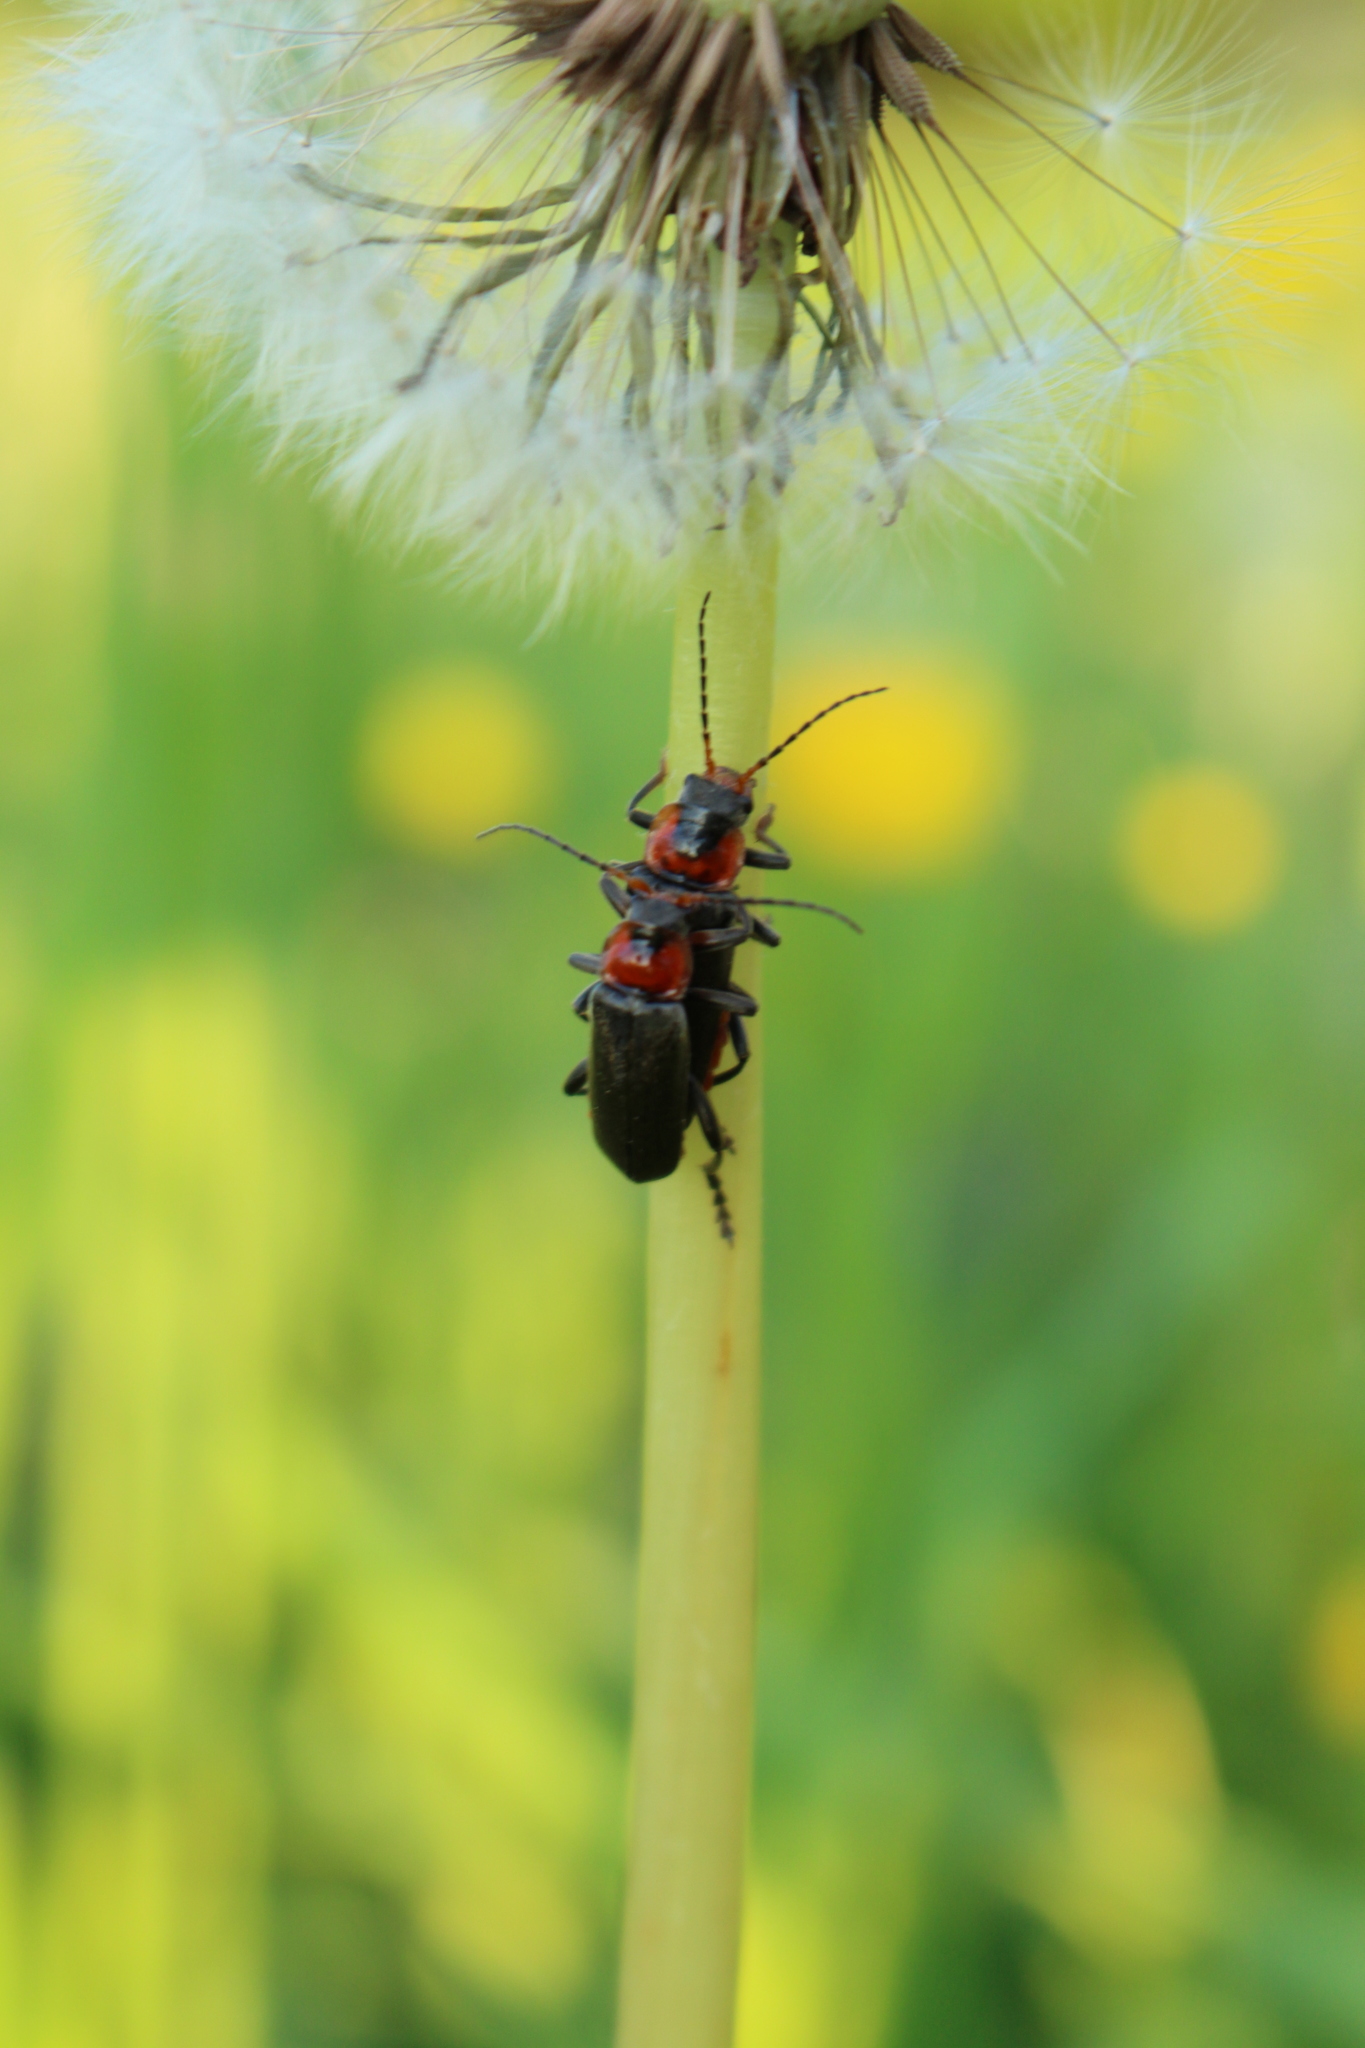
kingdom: Animalia
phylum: Arthropoda
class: Insecta
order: Coleoptera
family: Cantharidae
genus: Cantharis
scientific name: Cantharis fusca
